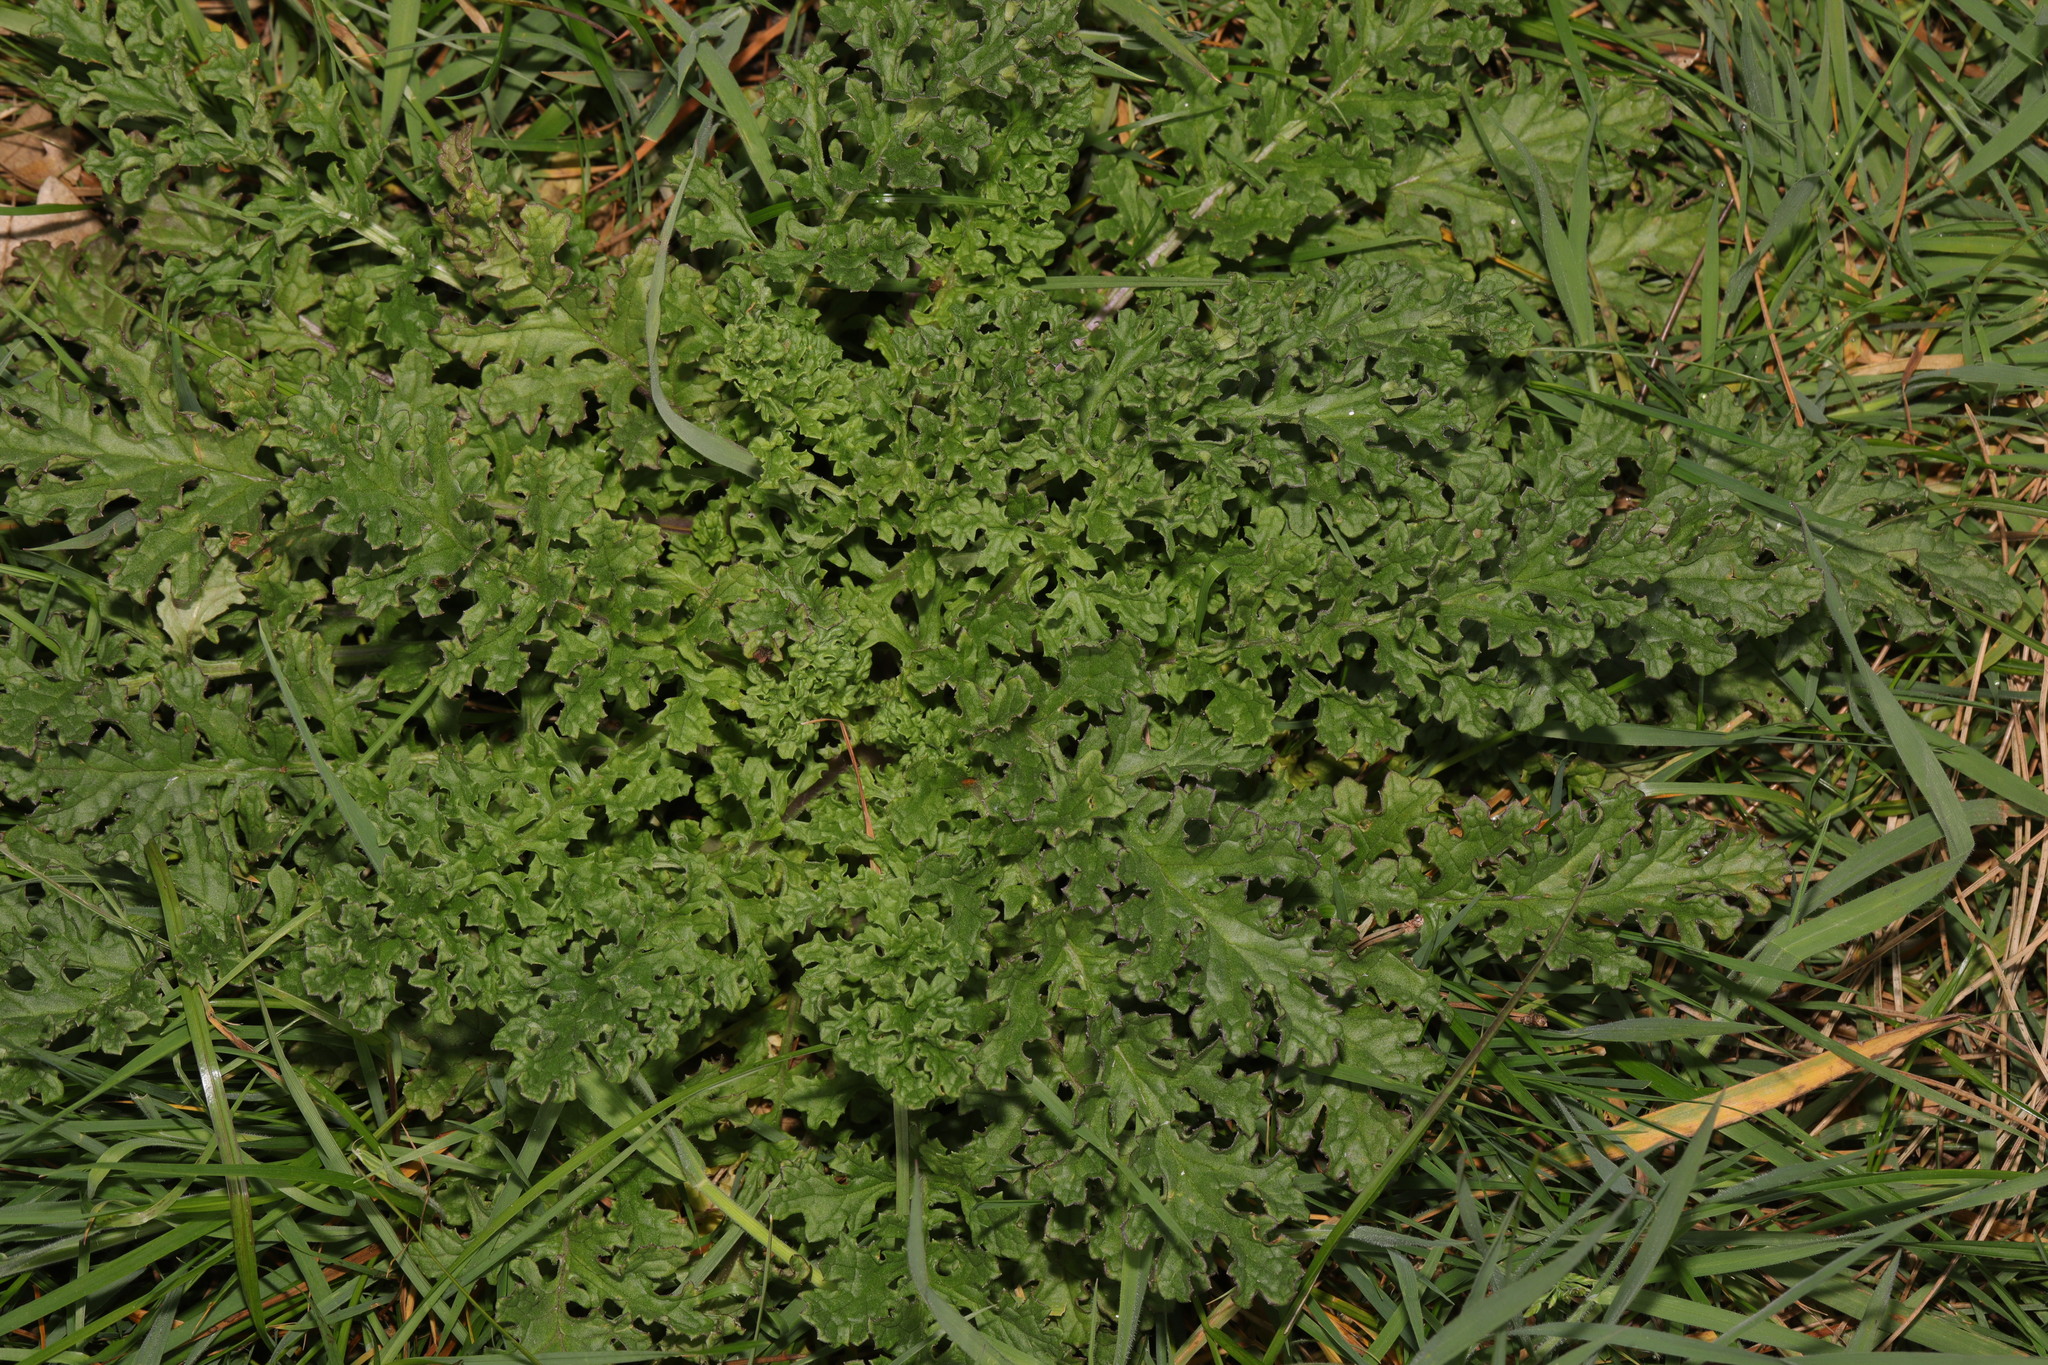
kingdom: Plantae
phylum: Tracheophyta
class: Magnoliopsida
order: Asterales
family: Asteraceae
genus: Jacobaea
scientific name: Jacobaea vulgaris
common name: Stinking willie
